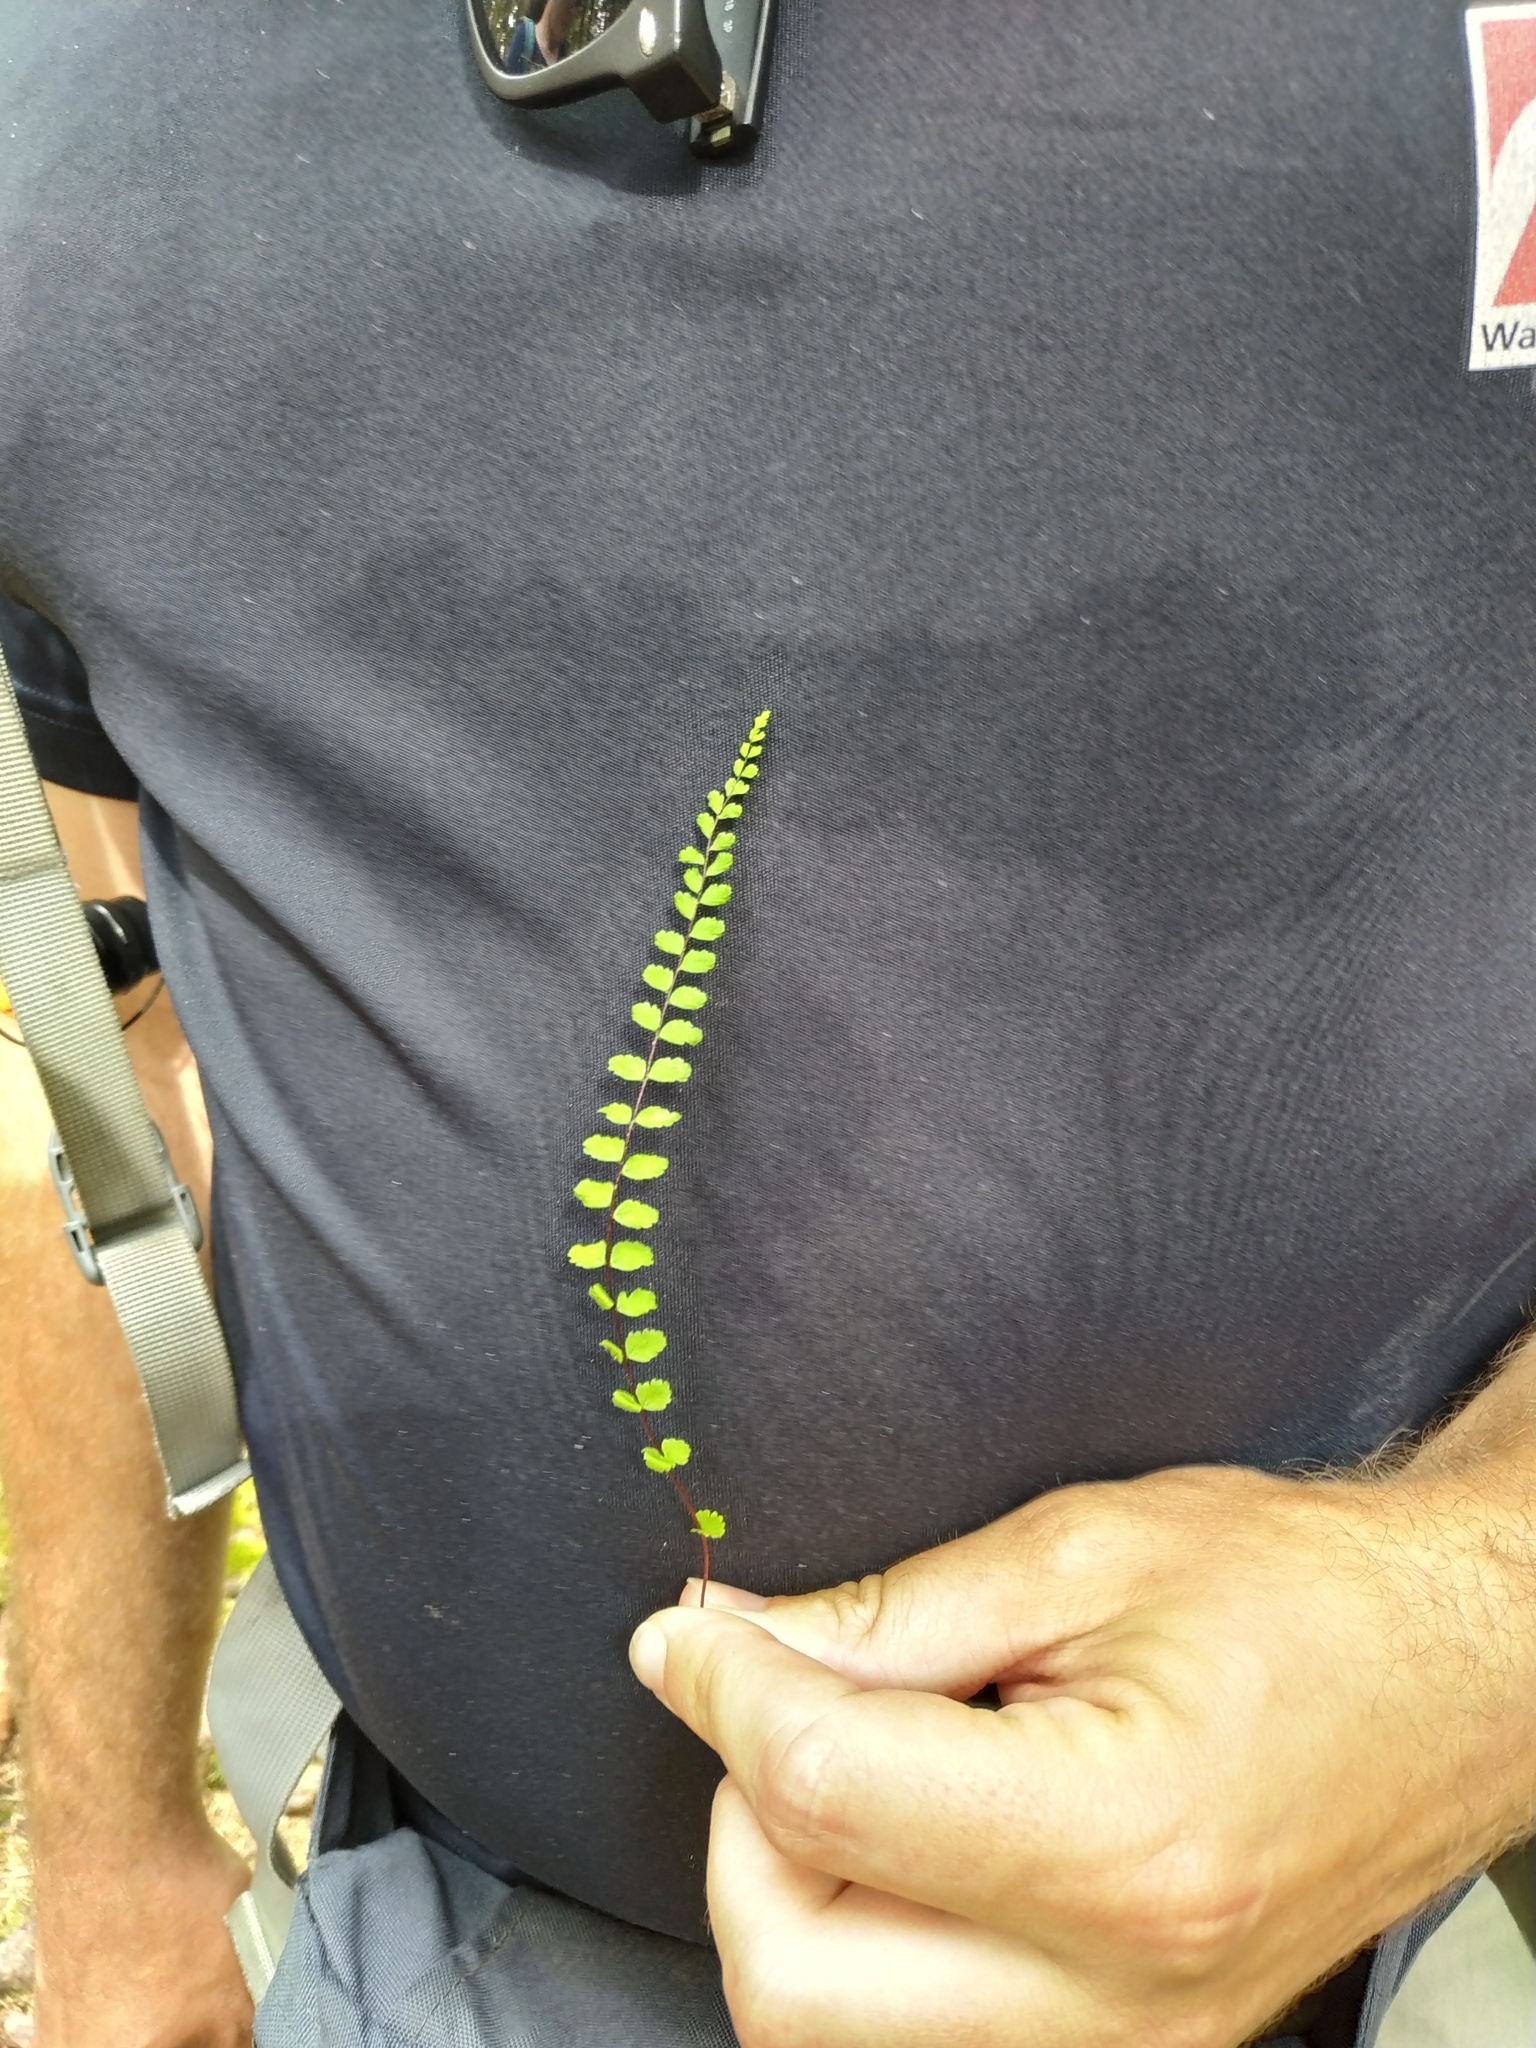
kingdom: Plantae
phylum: Tracheophyta
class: Polypodiopsida
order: Polypodiales
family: Aspleniaceae
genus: Asplenium
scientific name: Asplenium trichomanes
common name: Maidenhair spleenwort
